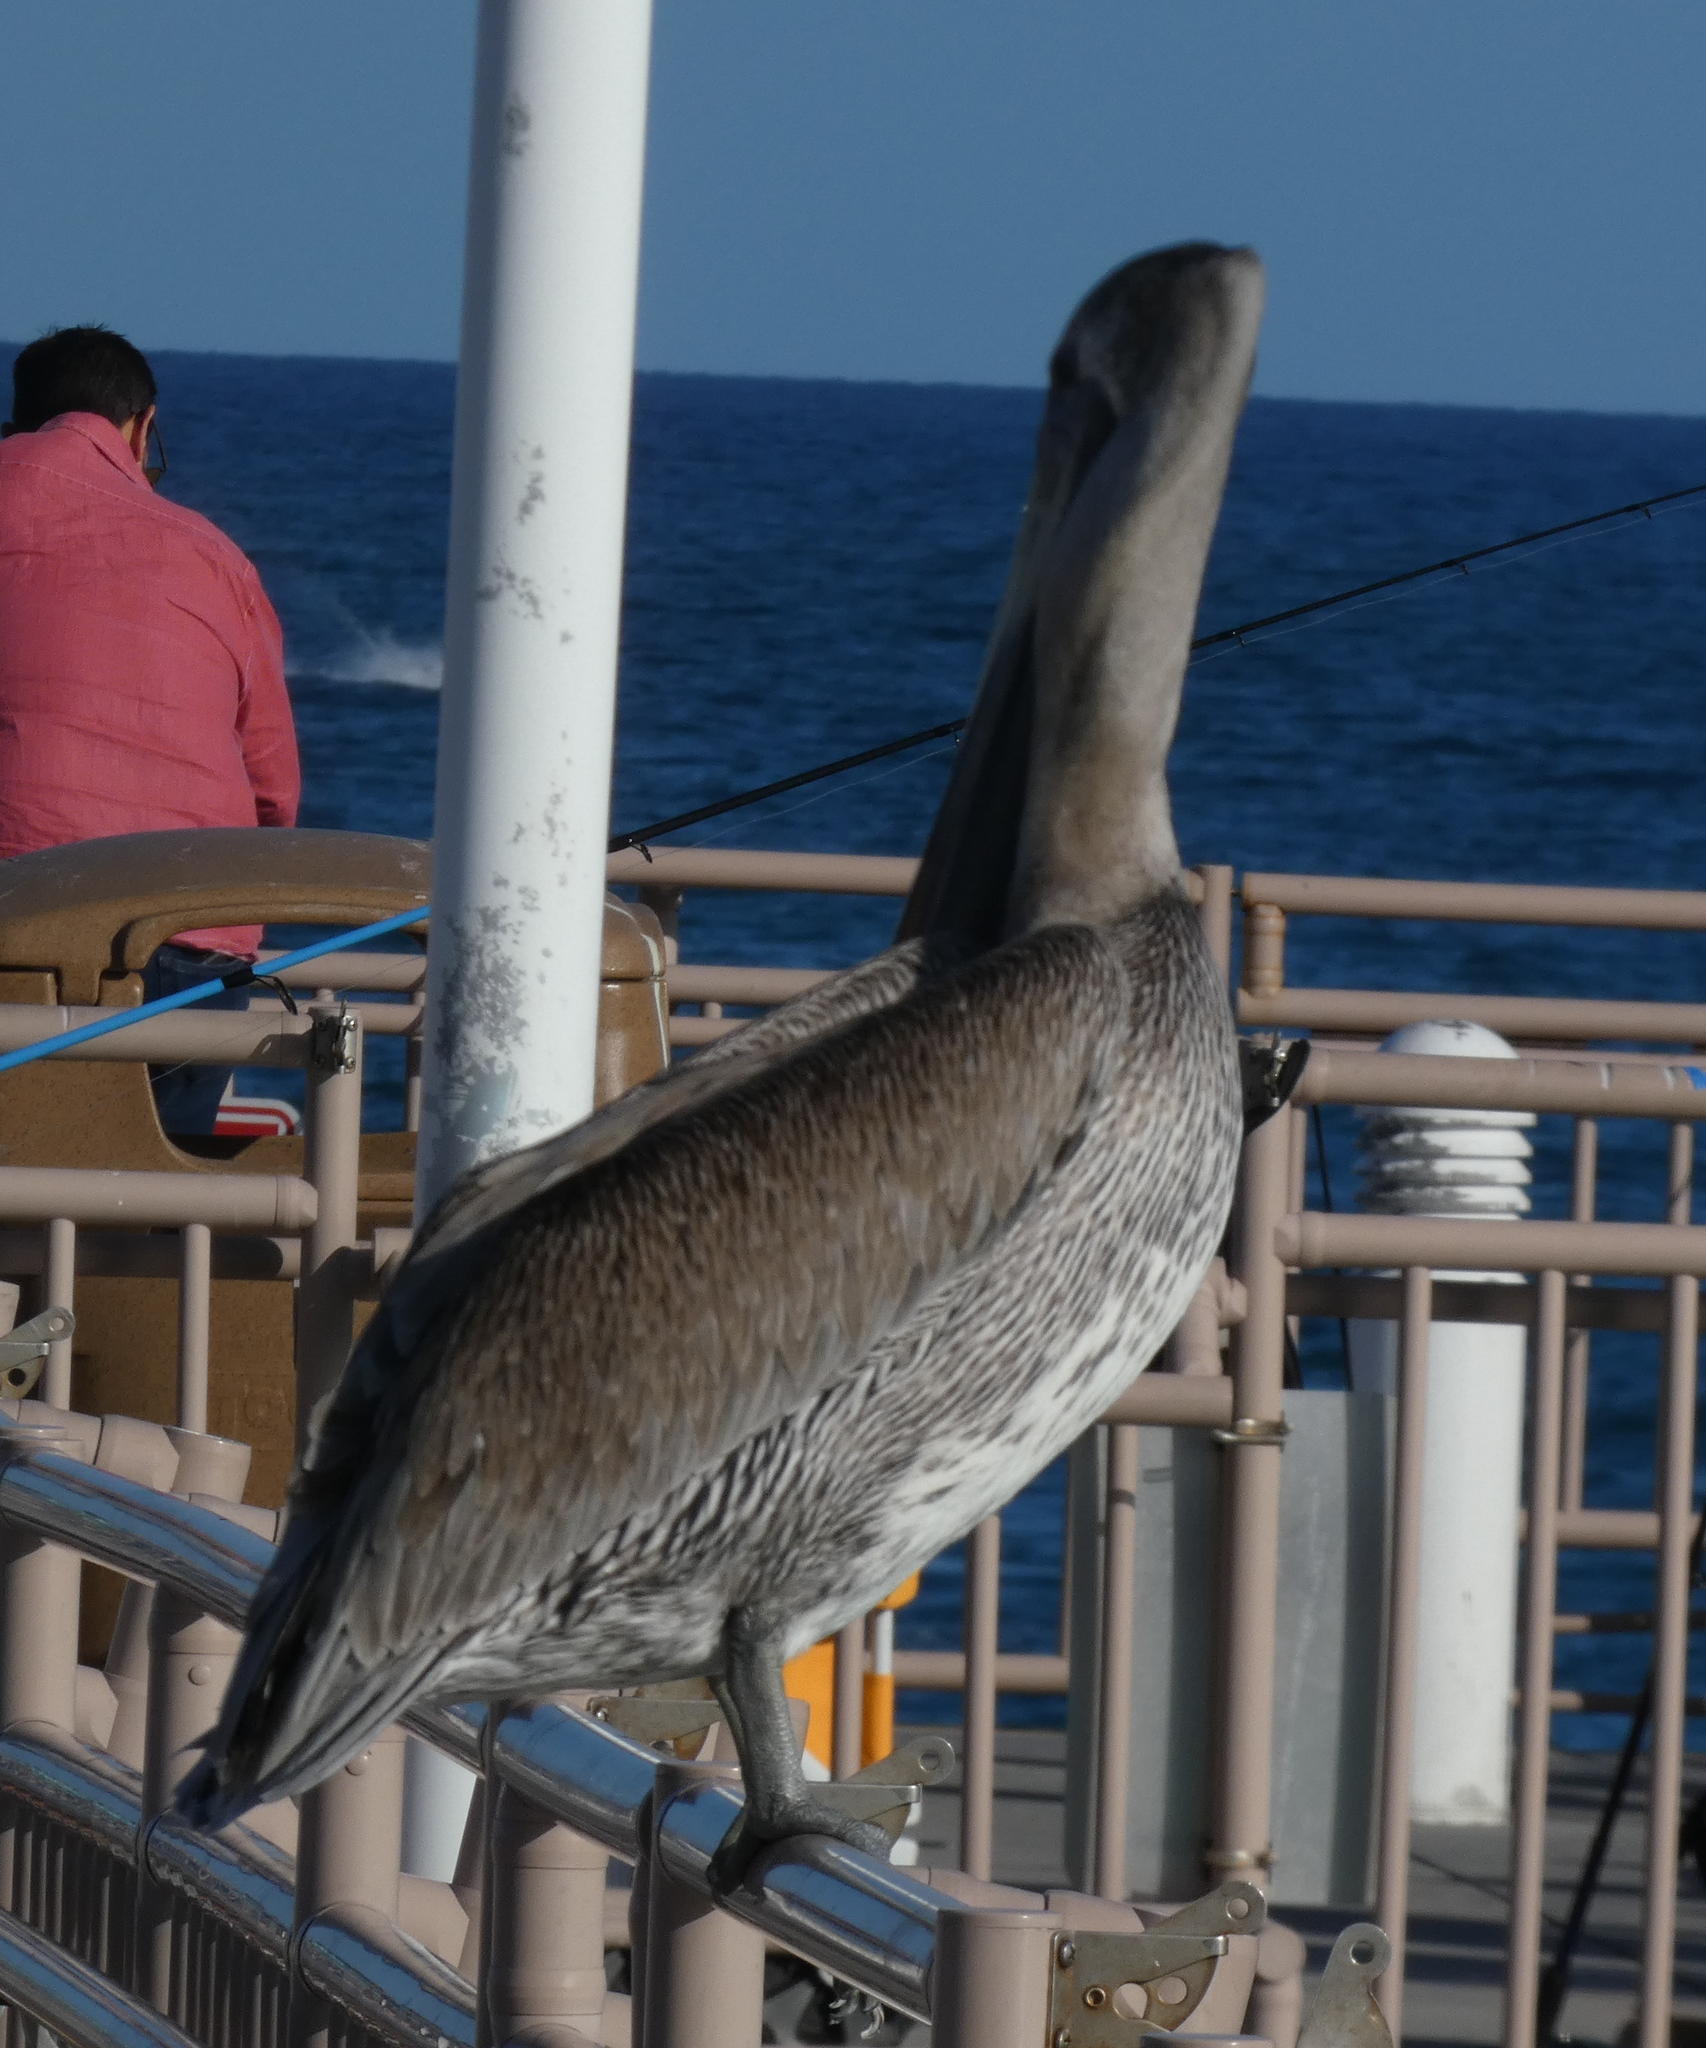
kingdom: Animalia
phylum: Chordata
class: Aves
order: Pelecaniformes
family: Pelecanidae
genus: Pelecanus
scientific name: Pelecanus occidentalis
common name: Brown pelican
